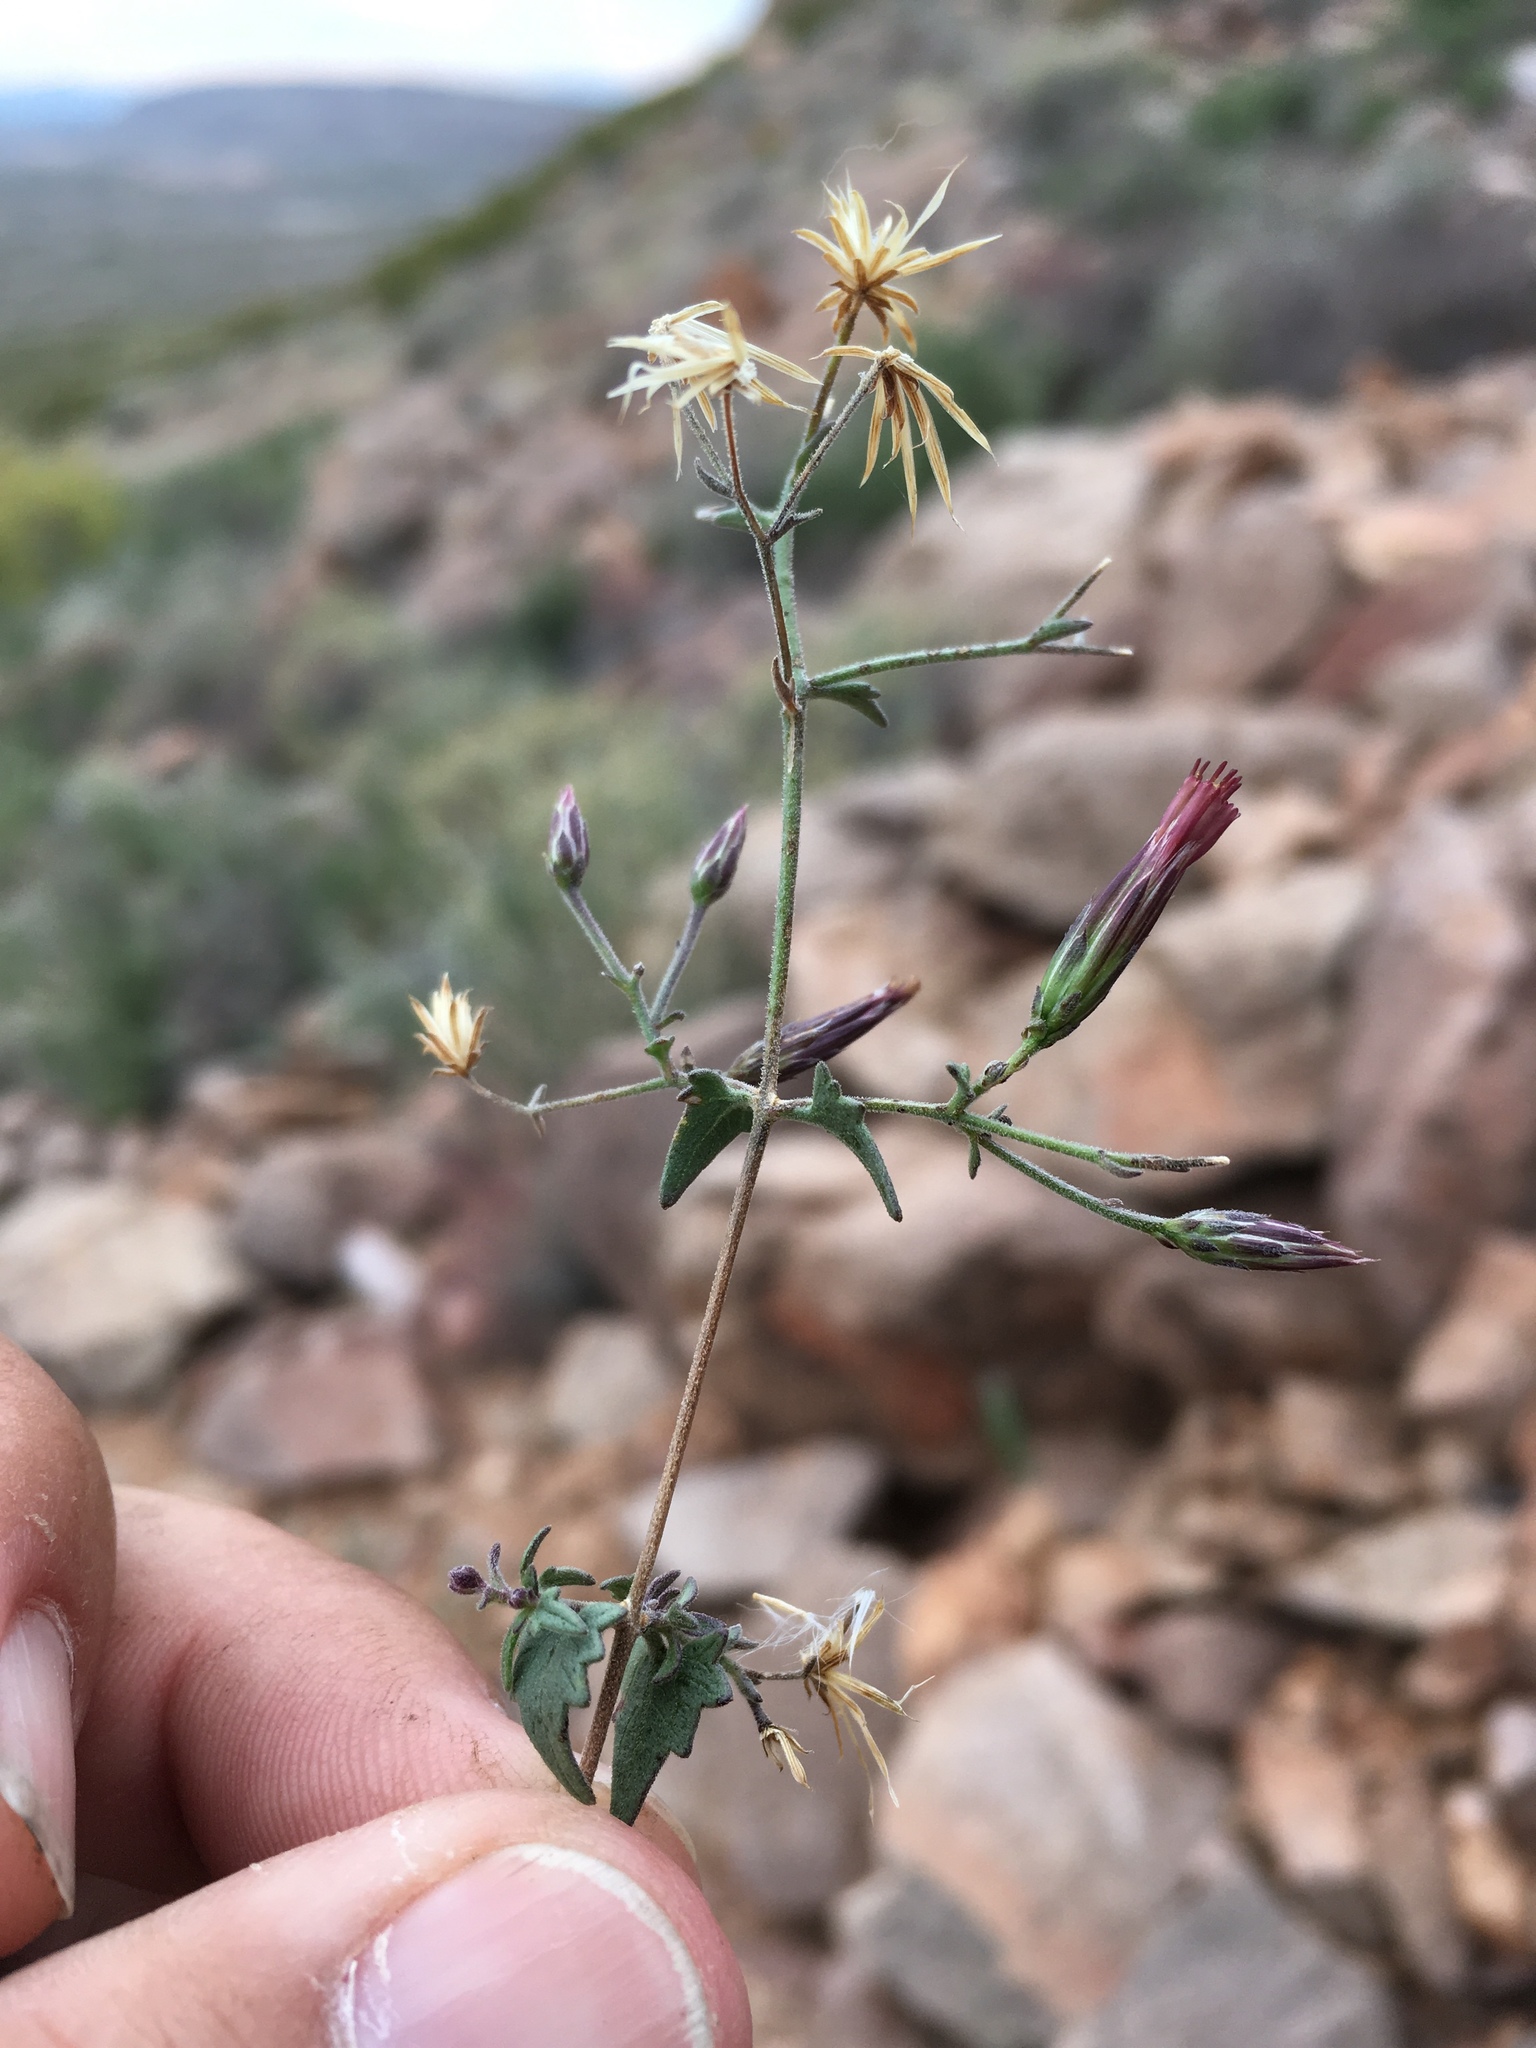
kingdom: Plantae
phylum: Tracheophyta
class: Magnoliopsida
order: Asterales
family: Asteraceae
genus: Brickellia
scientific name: Brickellia coulteri
